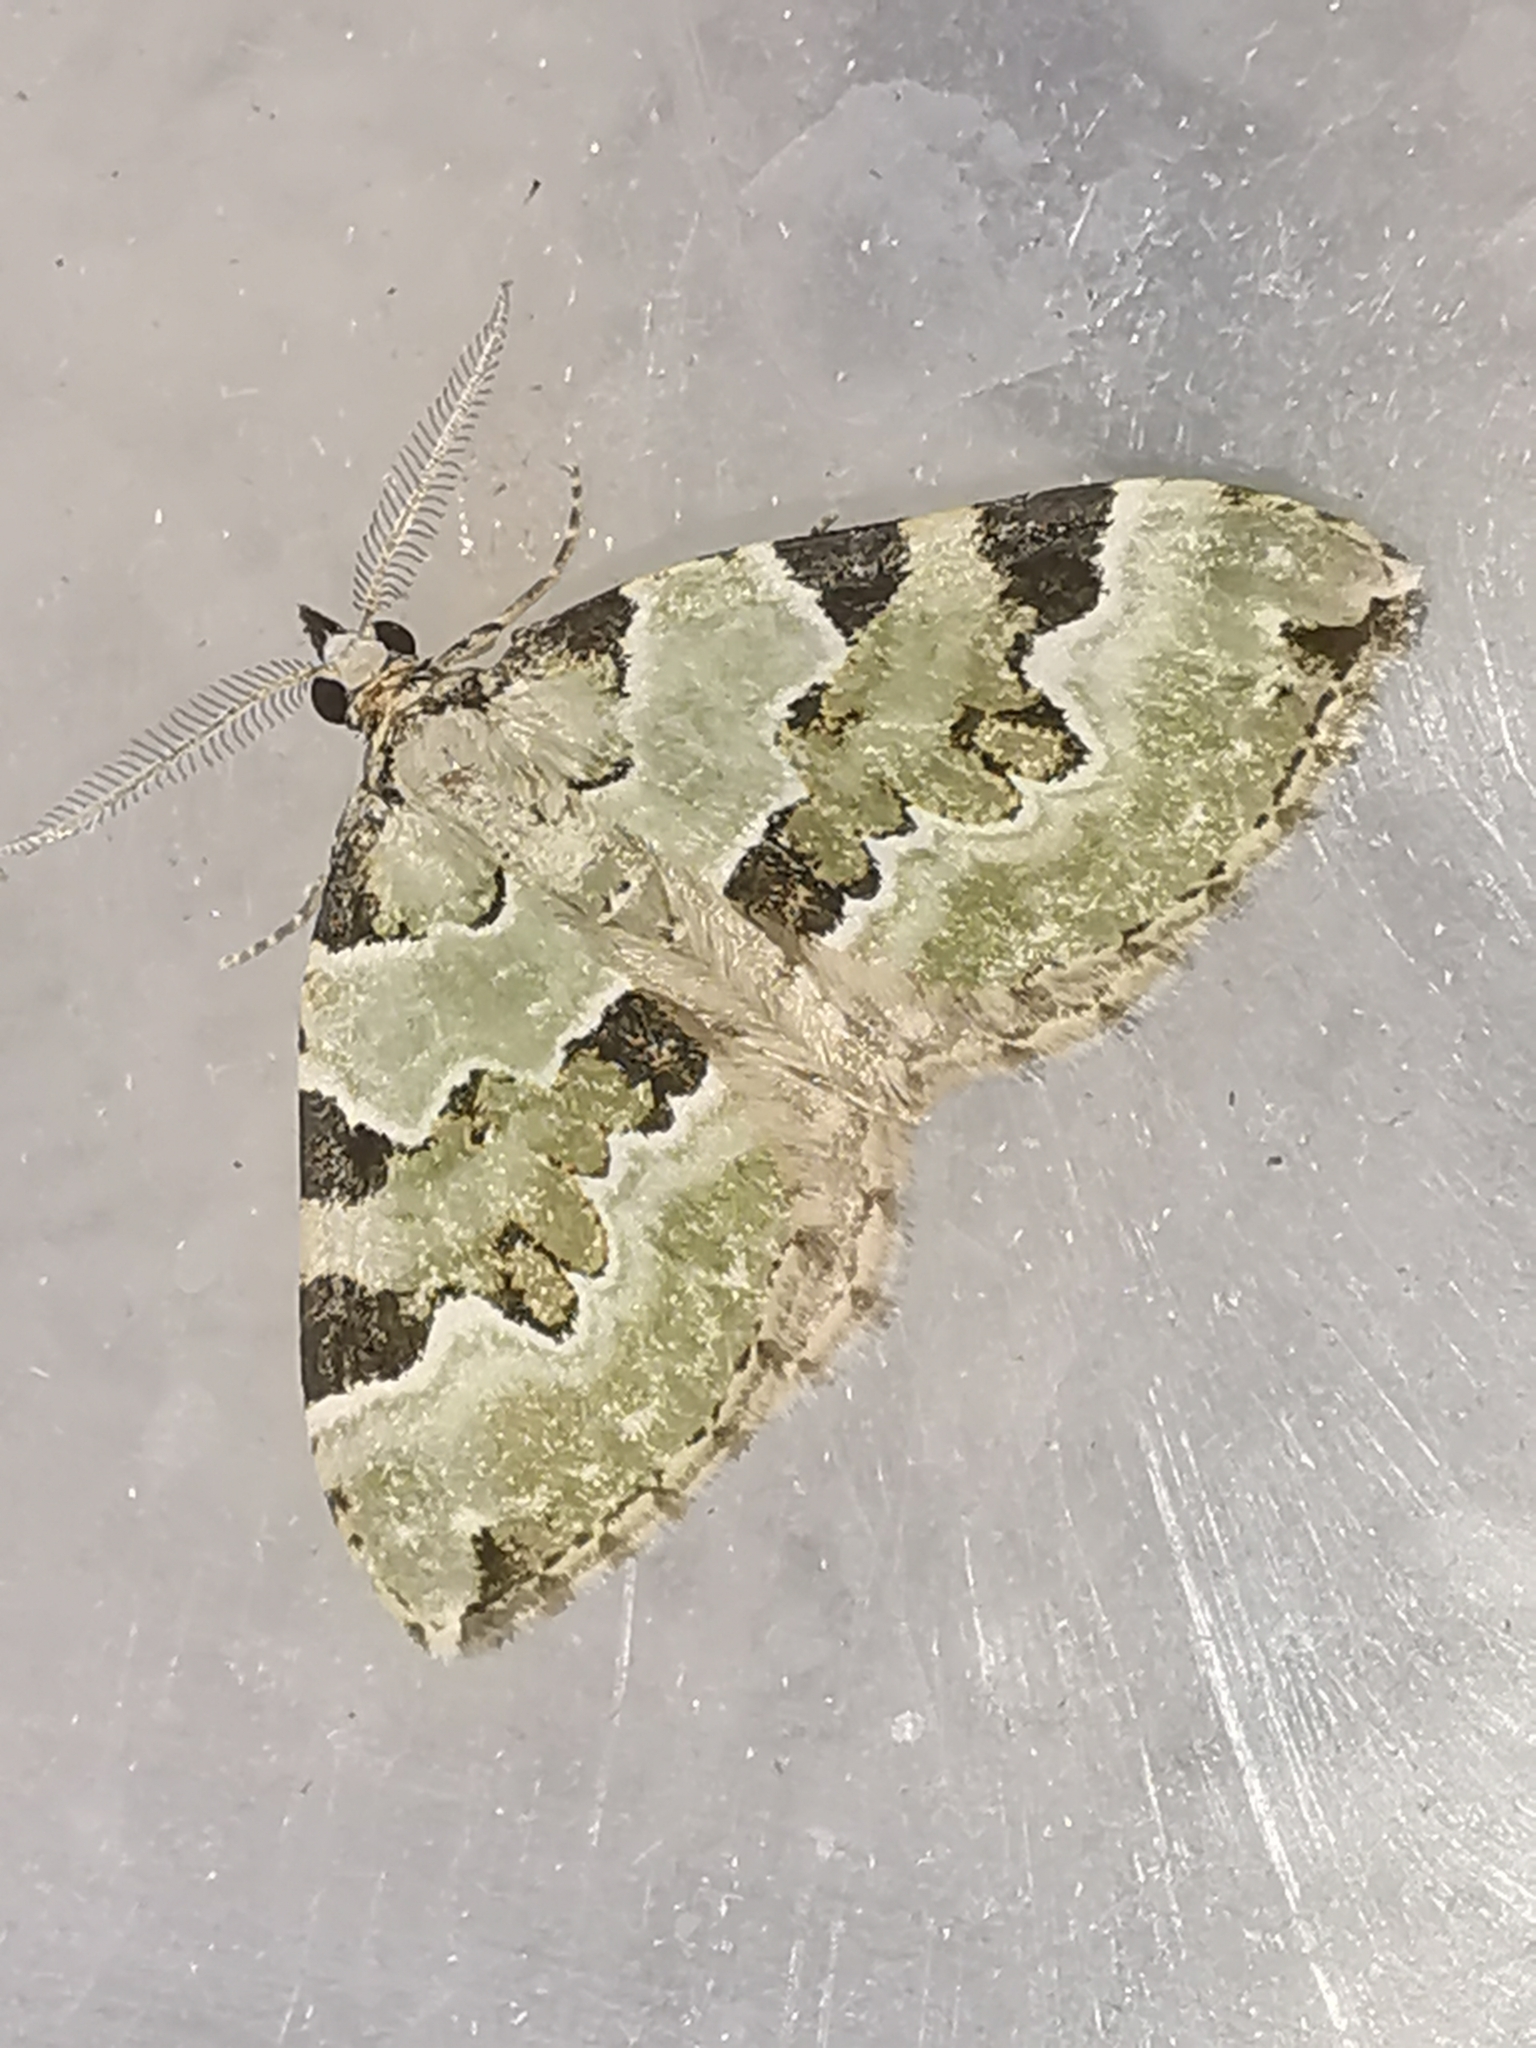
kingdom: Animalia
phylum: Arthropoda
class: Insecta
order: Lepidoptera
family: Geometridae
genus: Colostygia
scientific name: Colostygia pectinataria
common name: Green carpet
